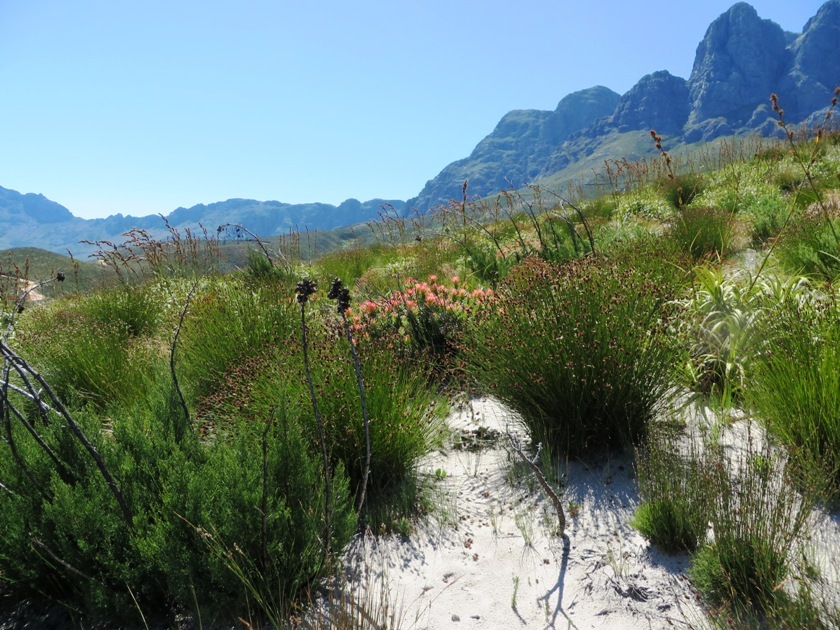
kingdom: Plantae
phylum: Tracheophyta
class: Pinopsida
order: Pinales
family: Cupressaceae
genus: Widdringtonia
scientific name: Widdringtonia nodiflora
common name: Cape cypress
